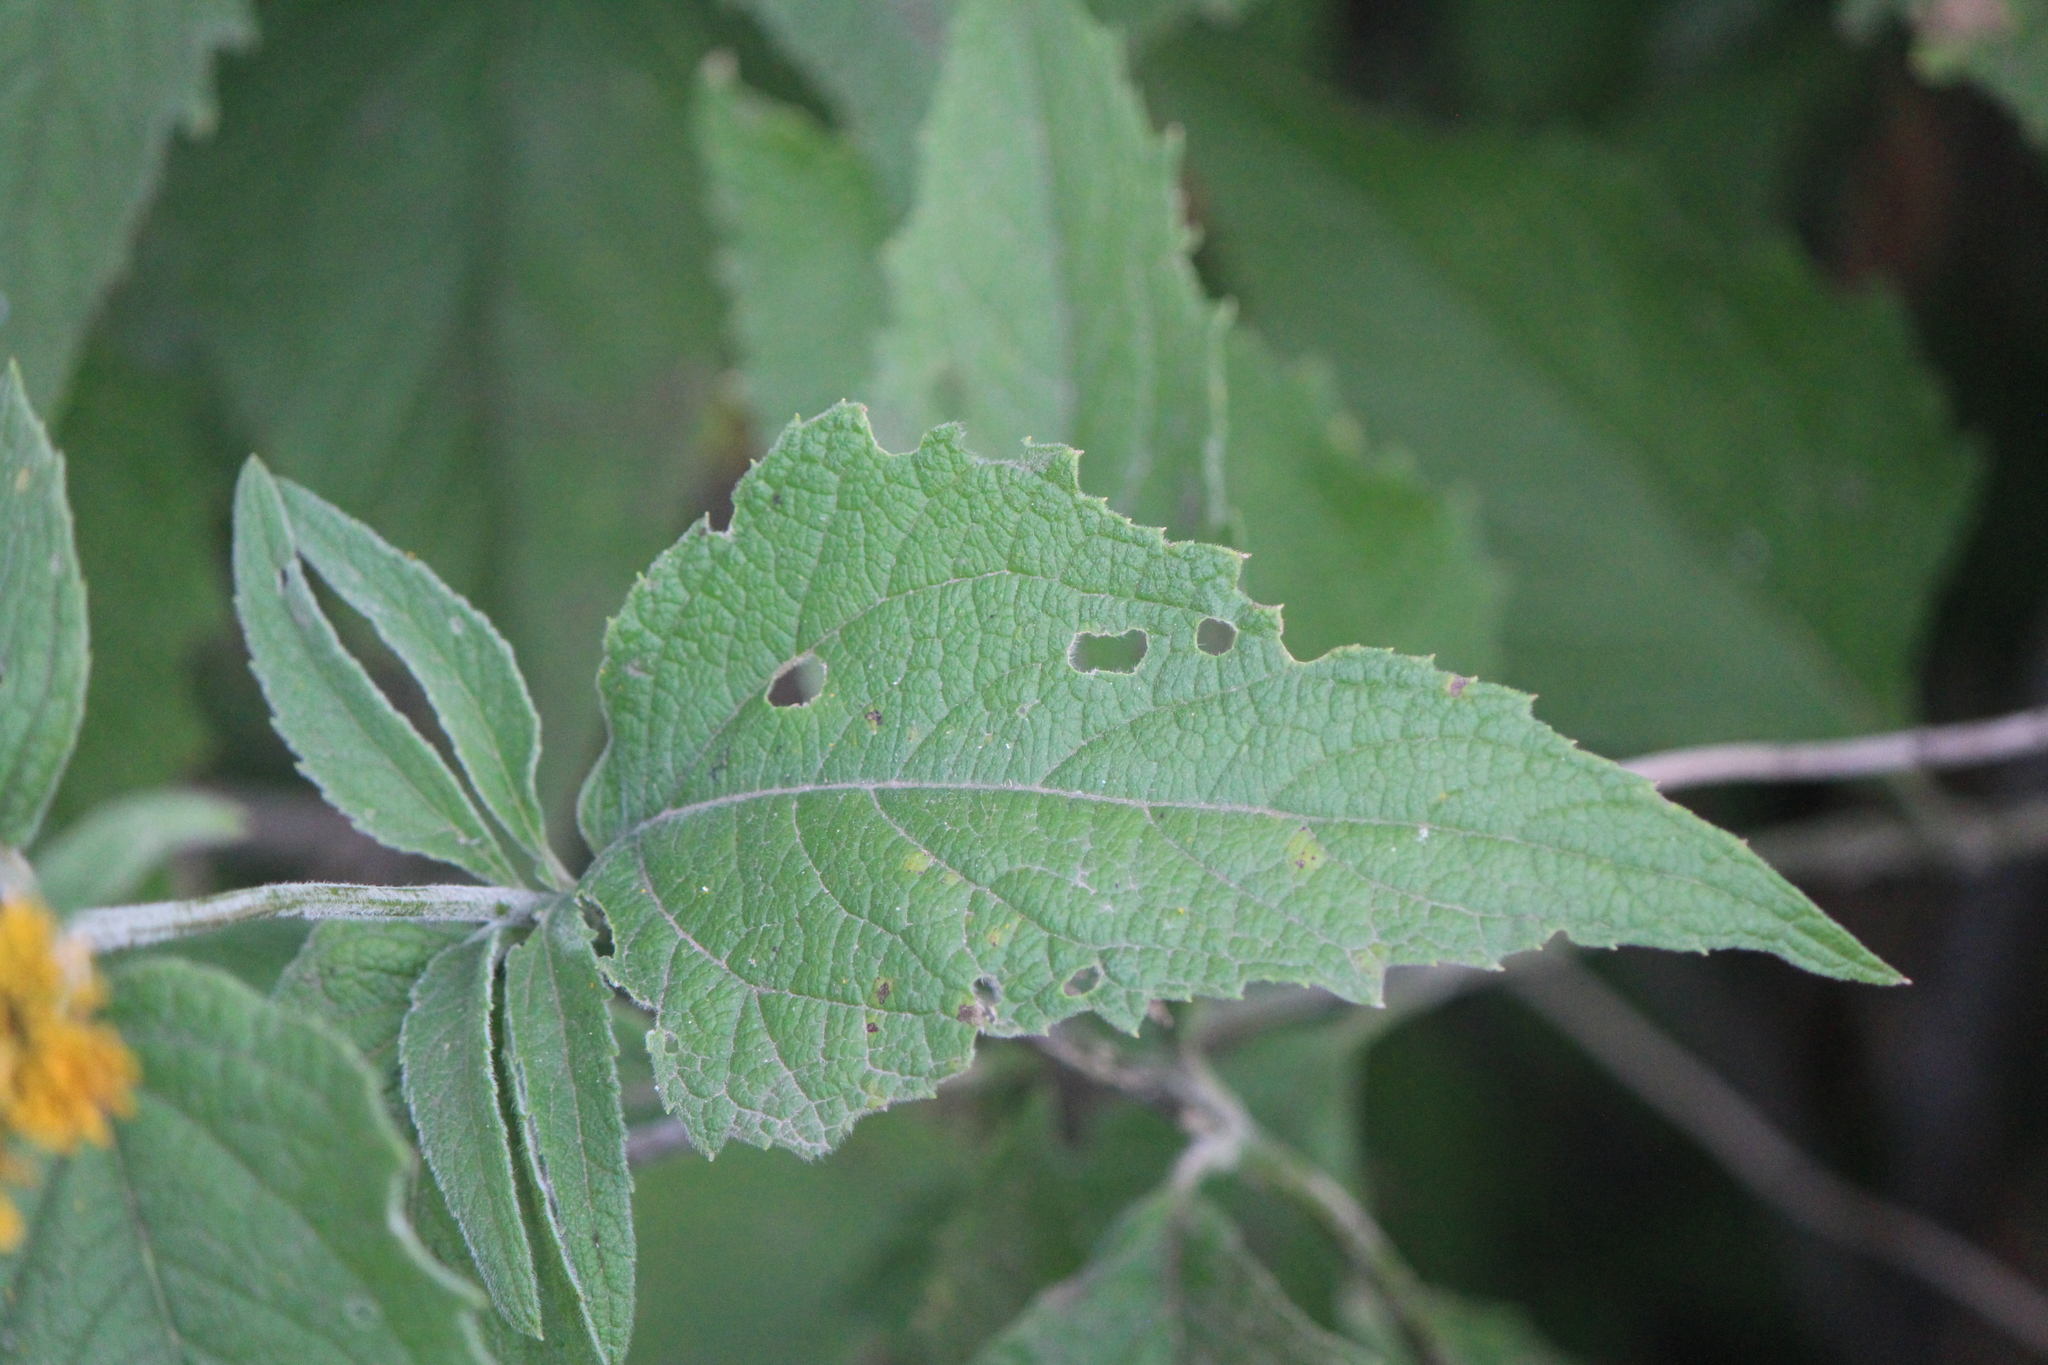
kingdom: Plantae
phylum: Tracheophyta
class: Magnoliopsida
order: Asterales
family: Asteraceae
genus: Verbesina
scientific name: Verbesina serrata
